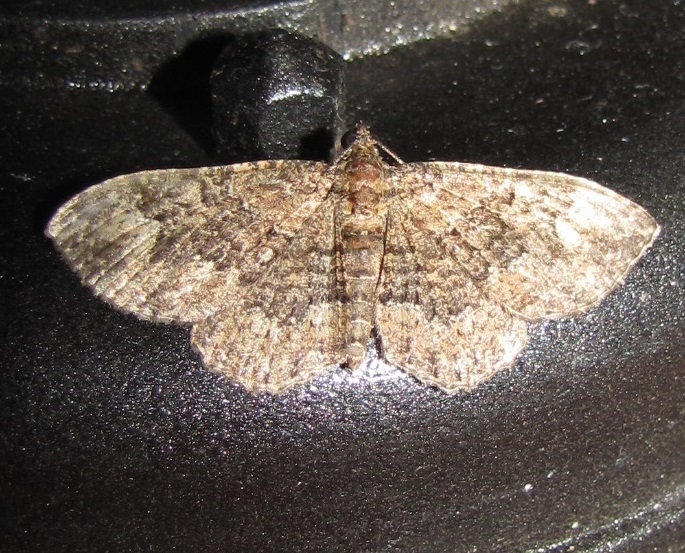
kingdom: Animalia
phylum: Arthropoda
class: Insecta
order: Lepidoptera
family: Geometridae
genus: Disclisioprocta
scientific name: Disclisioprocta stellata
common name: Somber carpet
